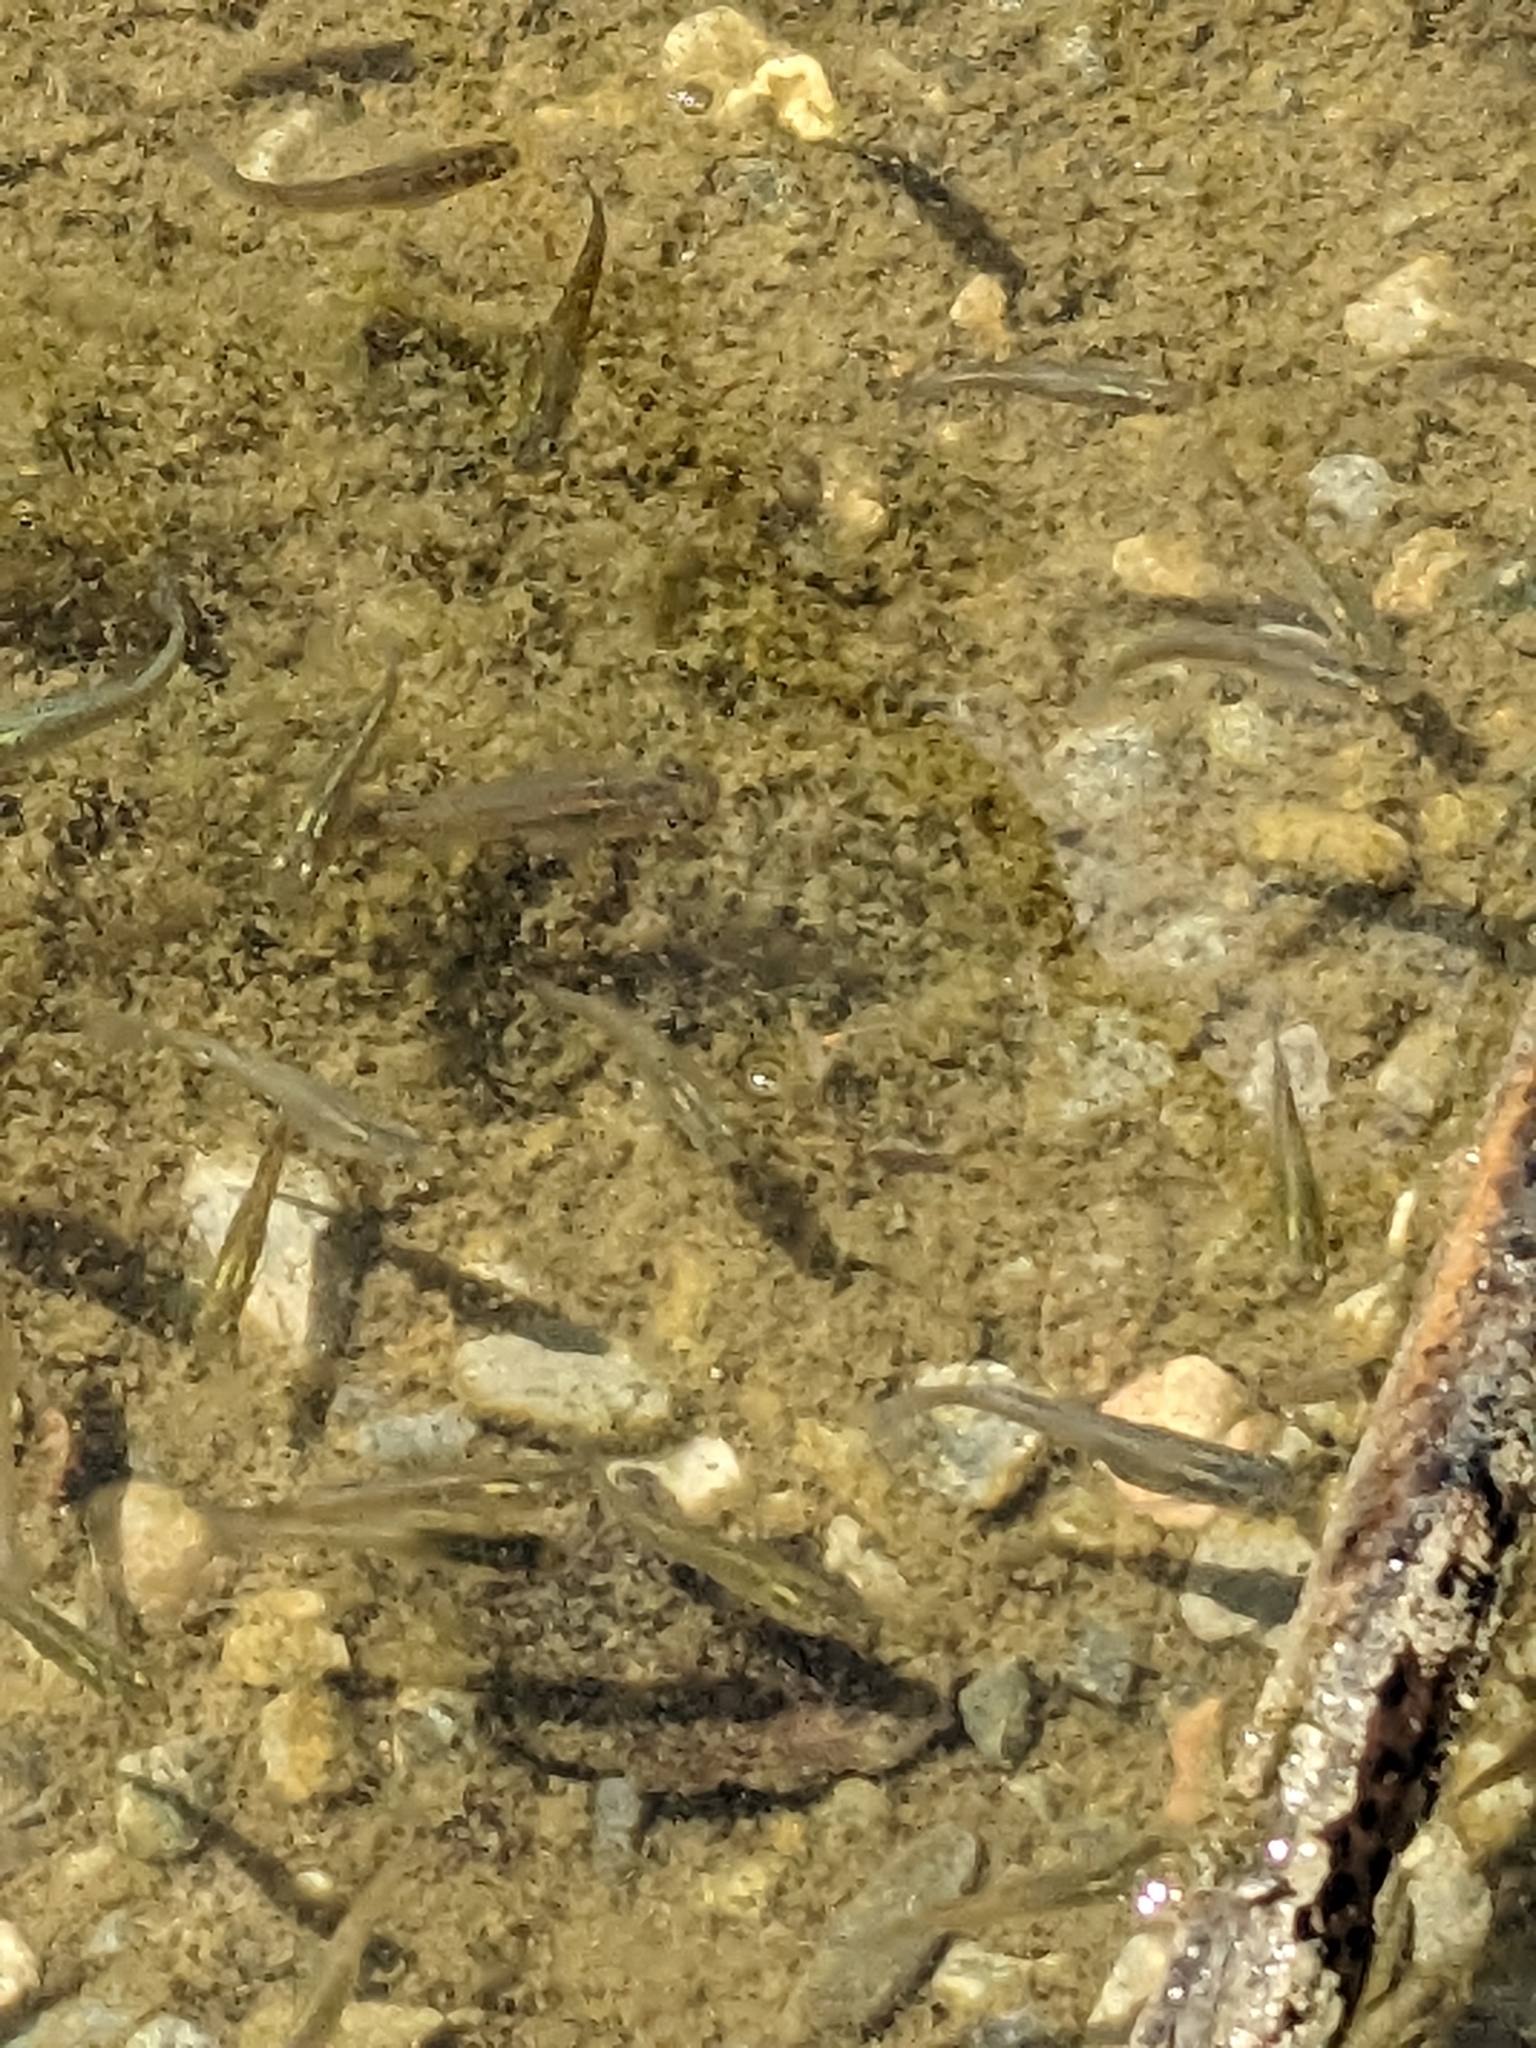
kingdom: Animalia
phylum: Chordata
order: Cyprinodontiformes
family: Poeciliidae
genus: Gambusia
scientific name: Gambusia affinis
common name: Mosquitofish
